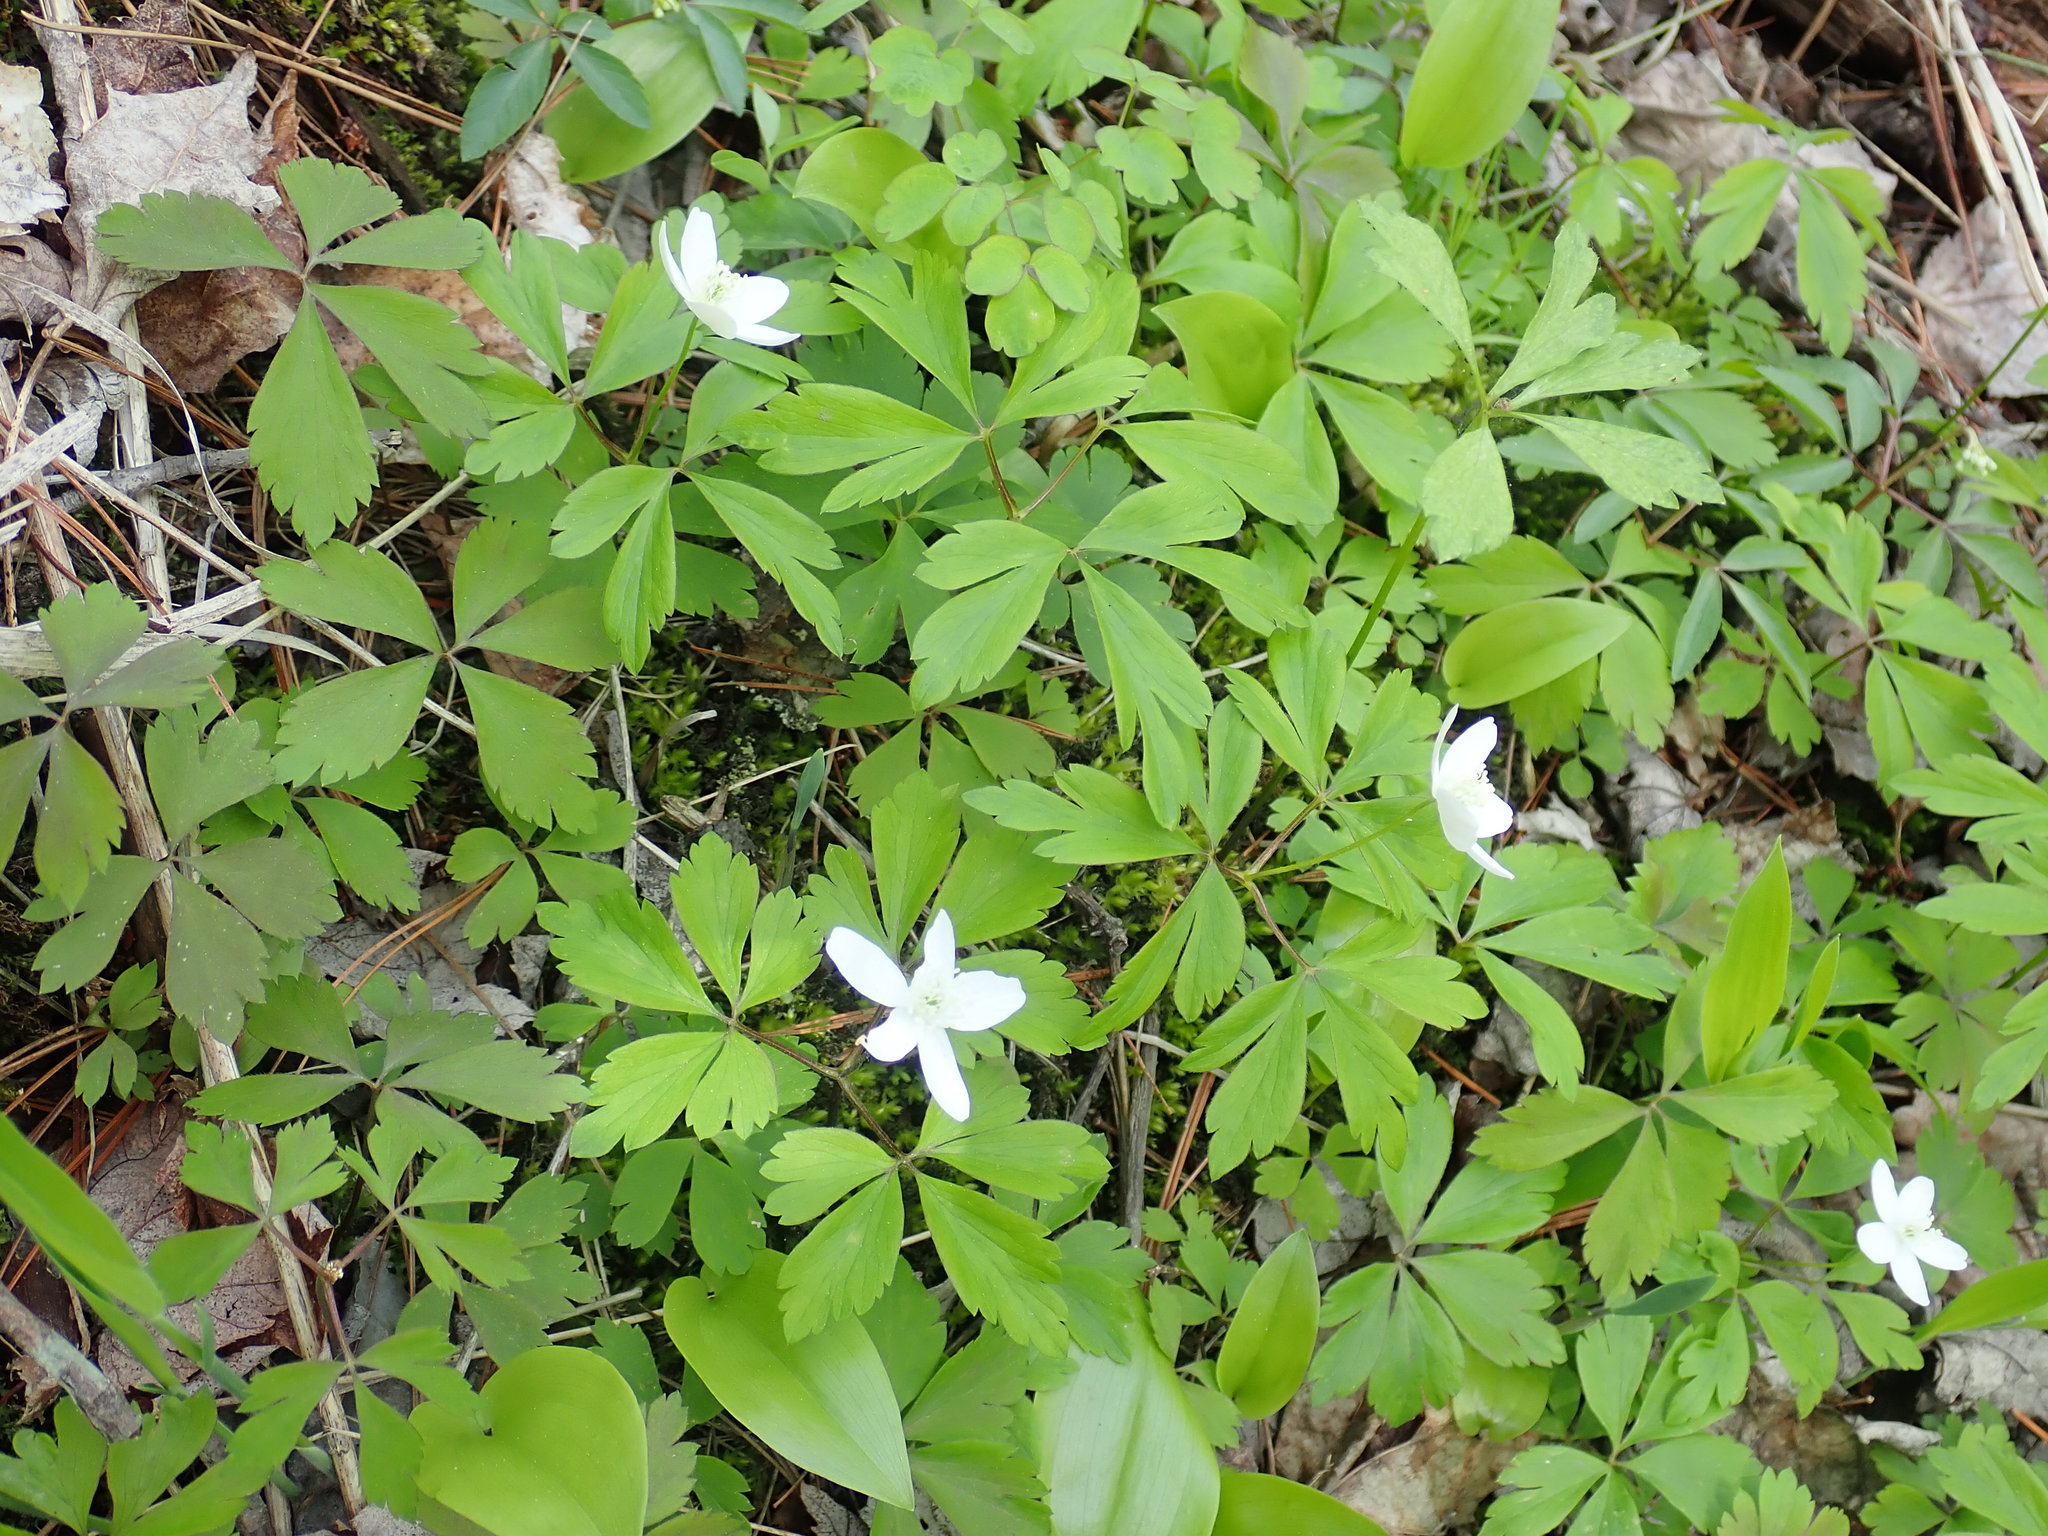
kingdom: Plantae
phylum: Tracheophyta
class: Magnoliopsida
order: Ranunculales
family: Ranunculaceae
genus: Anemone
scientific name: Anemone quinquefolia
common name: Wood anemone
